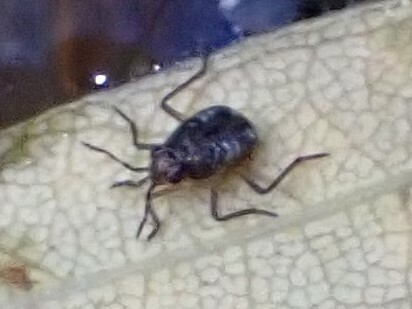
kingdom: Animalia
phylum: Arthropoda
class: Insecta
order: Hemiptera
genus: Kirkaldya
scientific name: Kirkaldya
